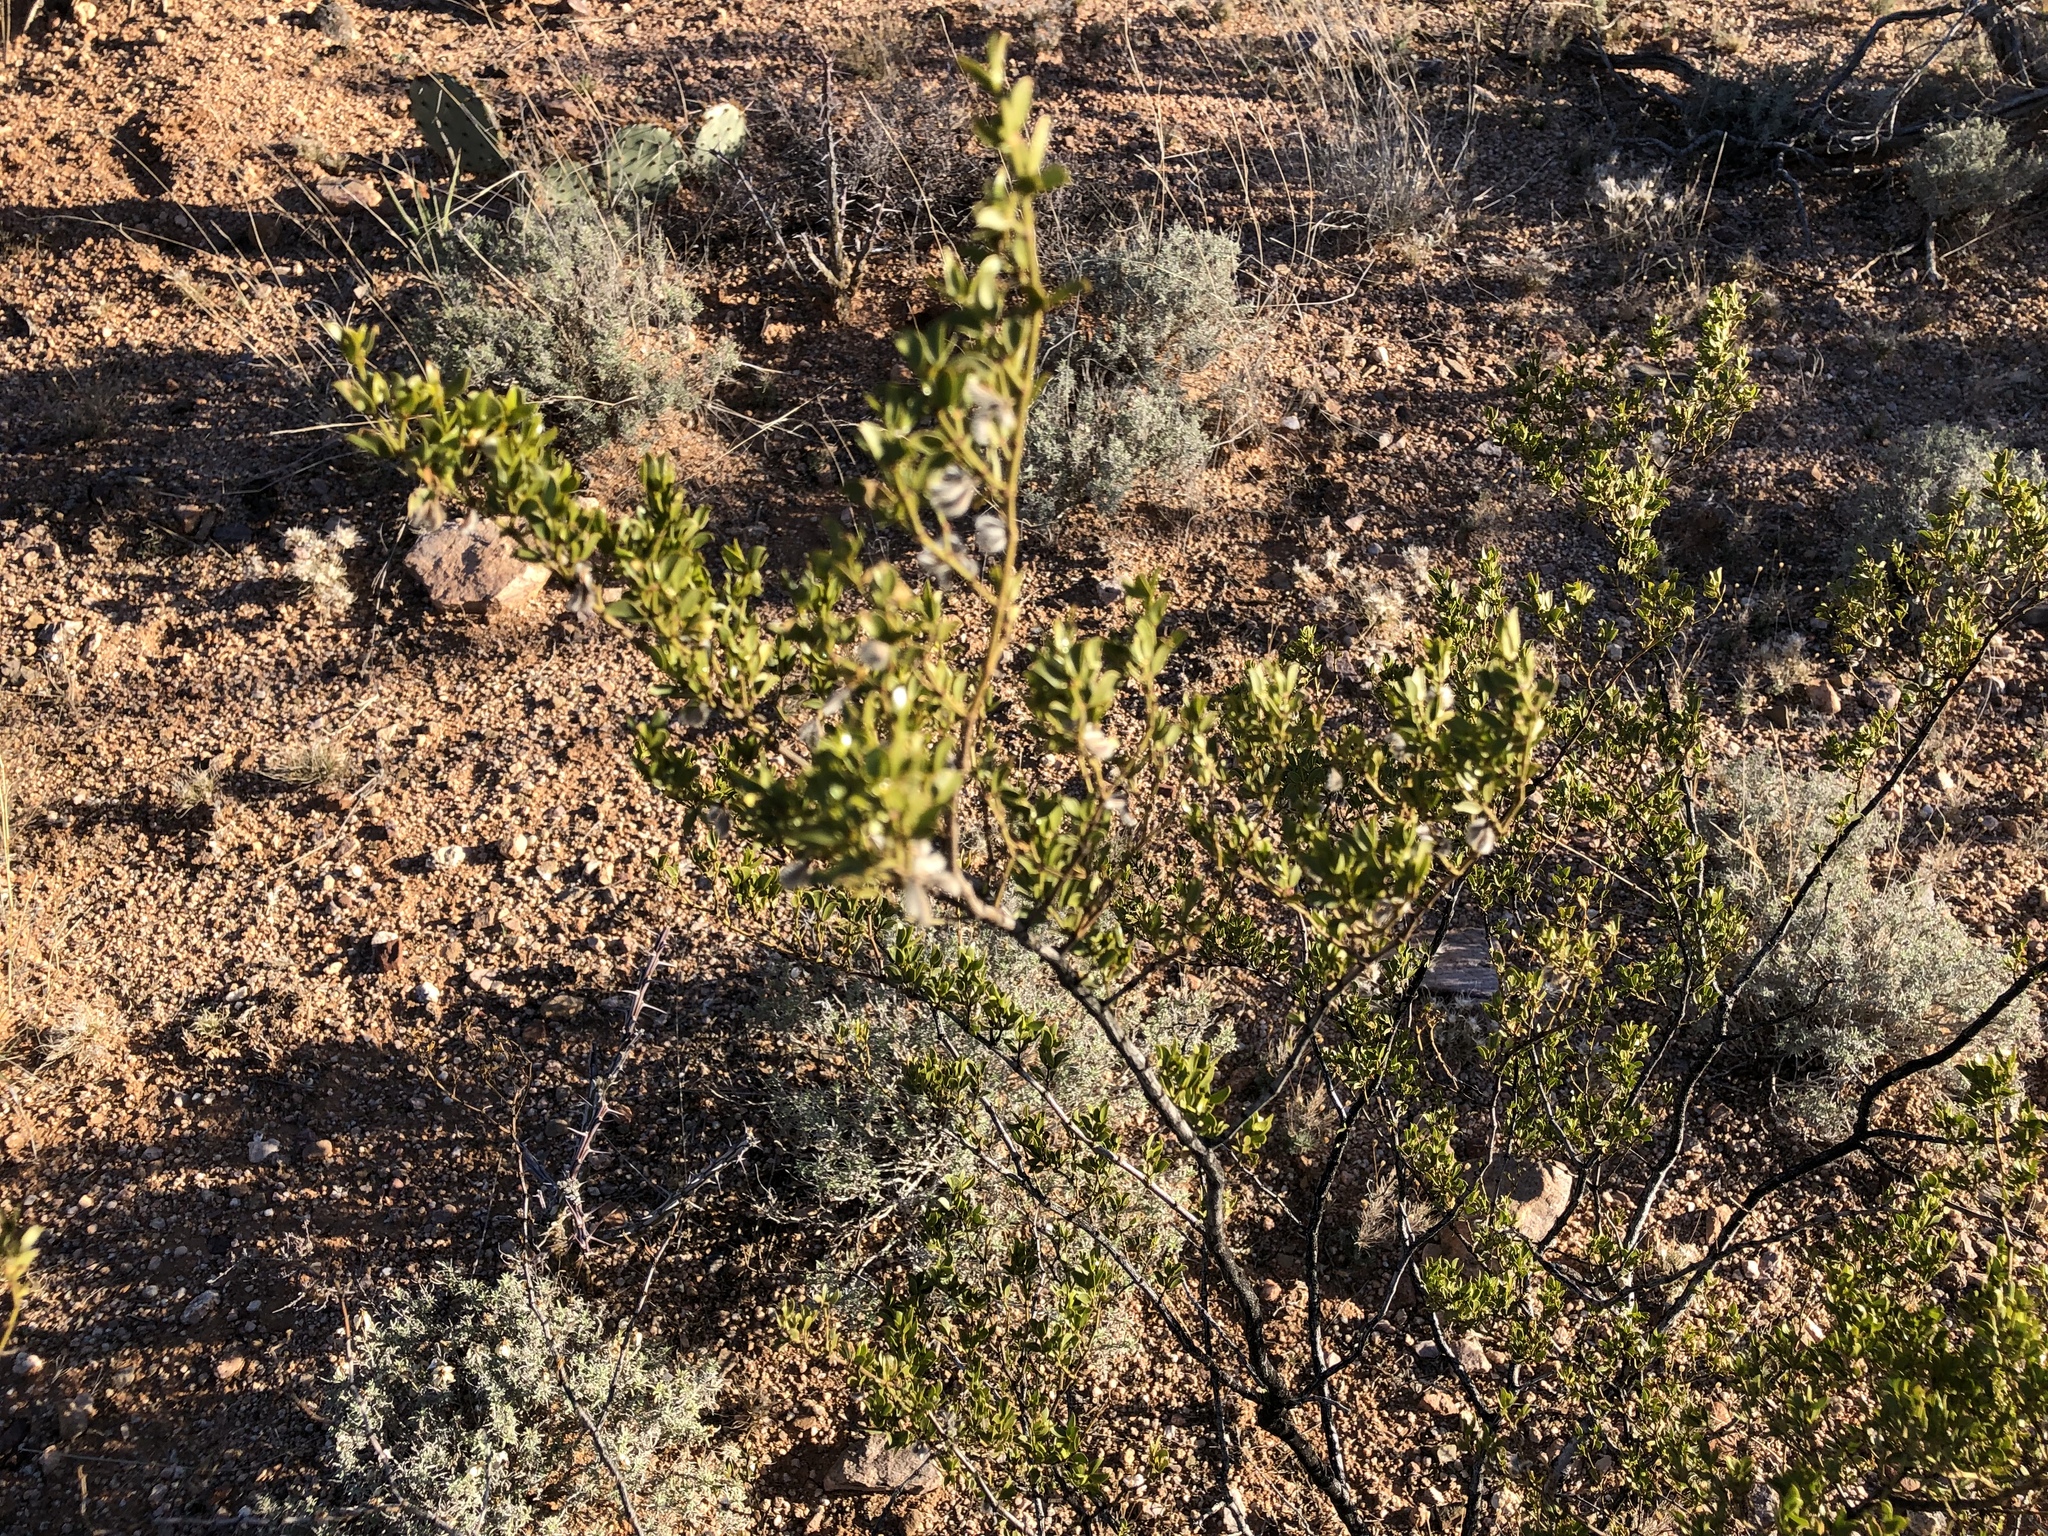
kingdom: Plantae
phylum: Tracheophyta
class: Magnoliopsida
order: Zygophyllales
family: Zygophyllaceae
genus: Larrea
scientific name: Larrea tridentata
